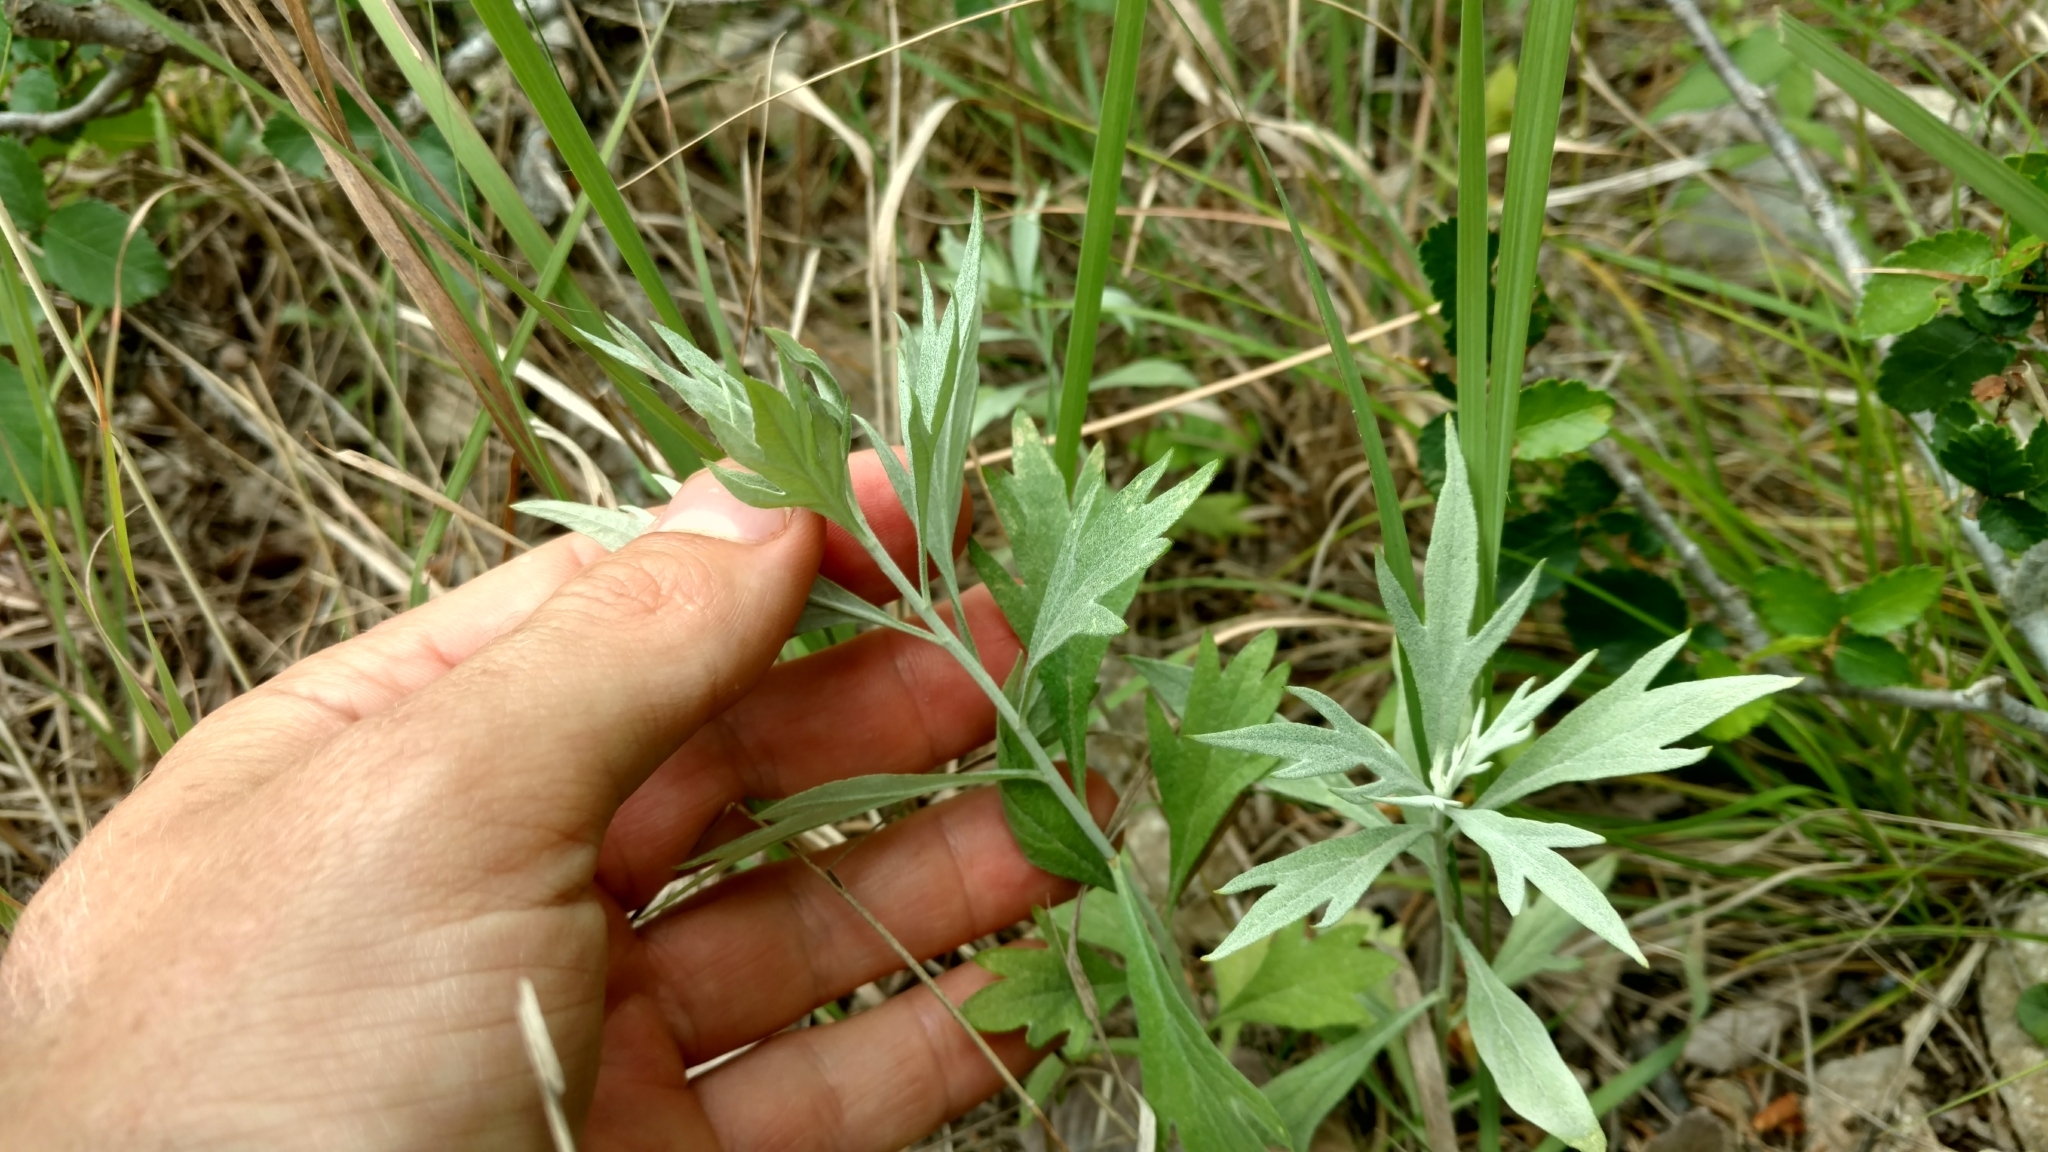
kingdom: Plantae
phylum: Tracheophyta
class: Magnoliopsida
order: Asterales
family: Asteraceae
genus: Artemisia
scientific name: Artemisia ludoviciana
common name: Western mugwort
